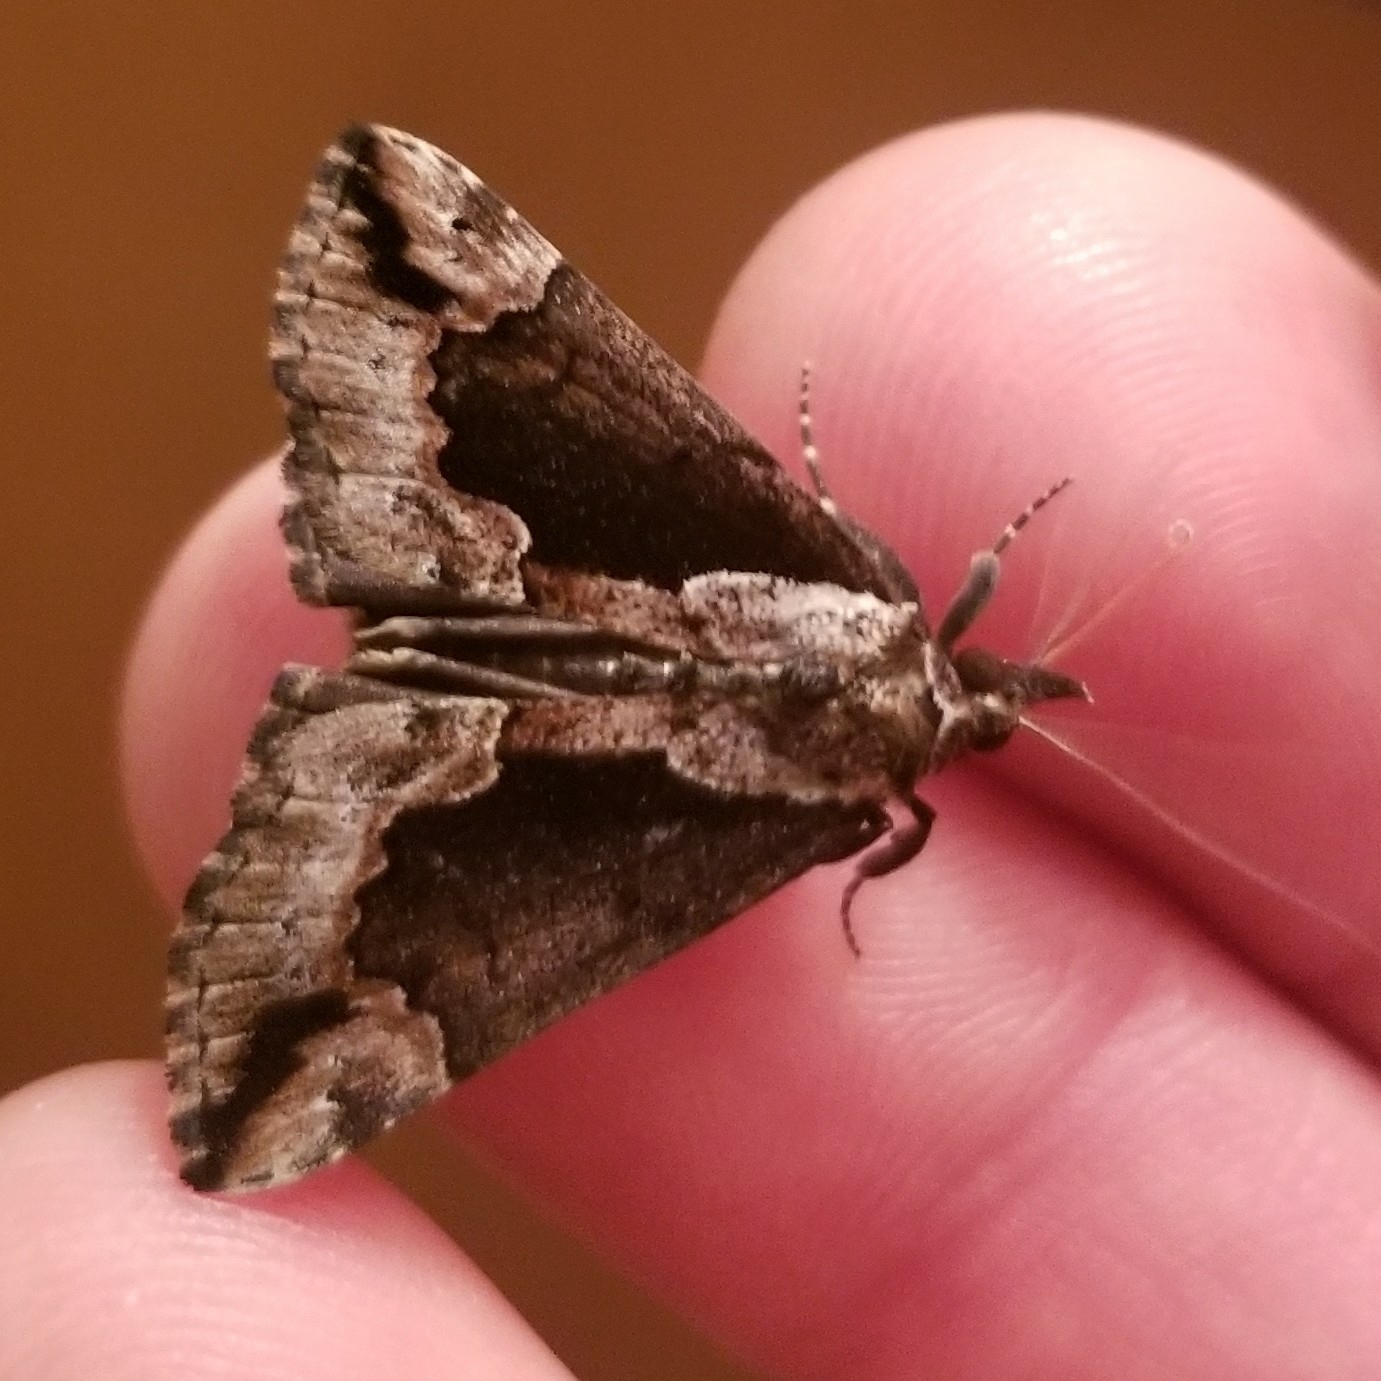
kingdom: Animalia
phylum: Arthropoda
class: Insecta
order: Lepidoptera
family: Erebidae
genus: Hypena
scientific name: Hypena baltimoralis
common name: Baltimore snout
